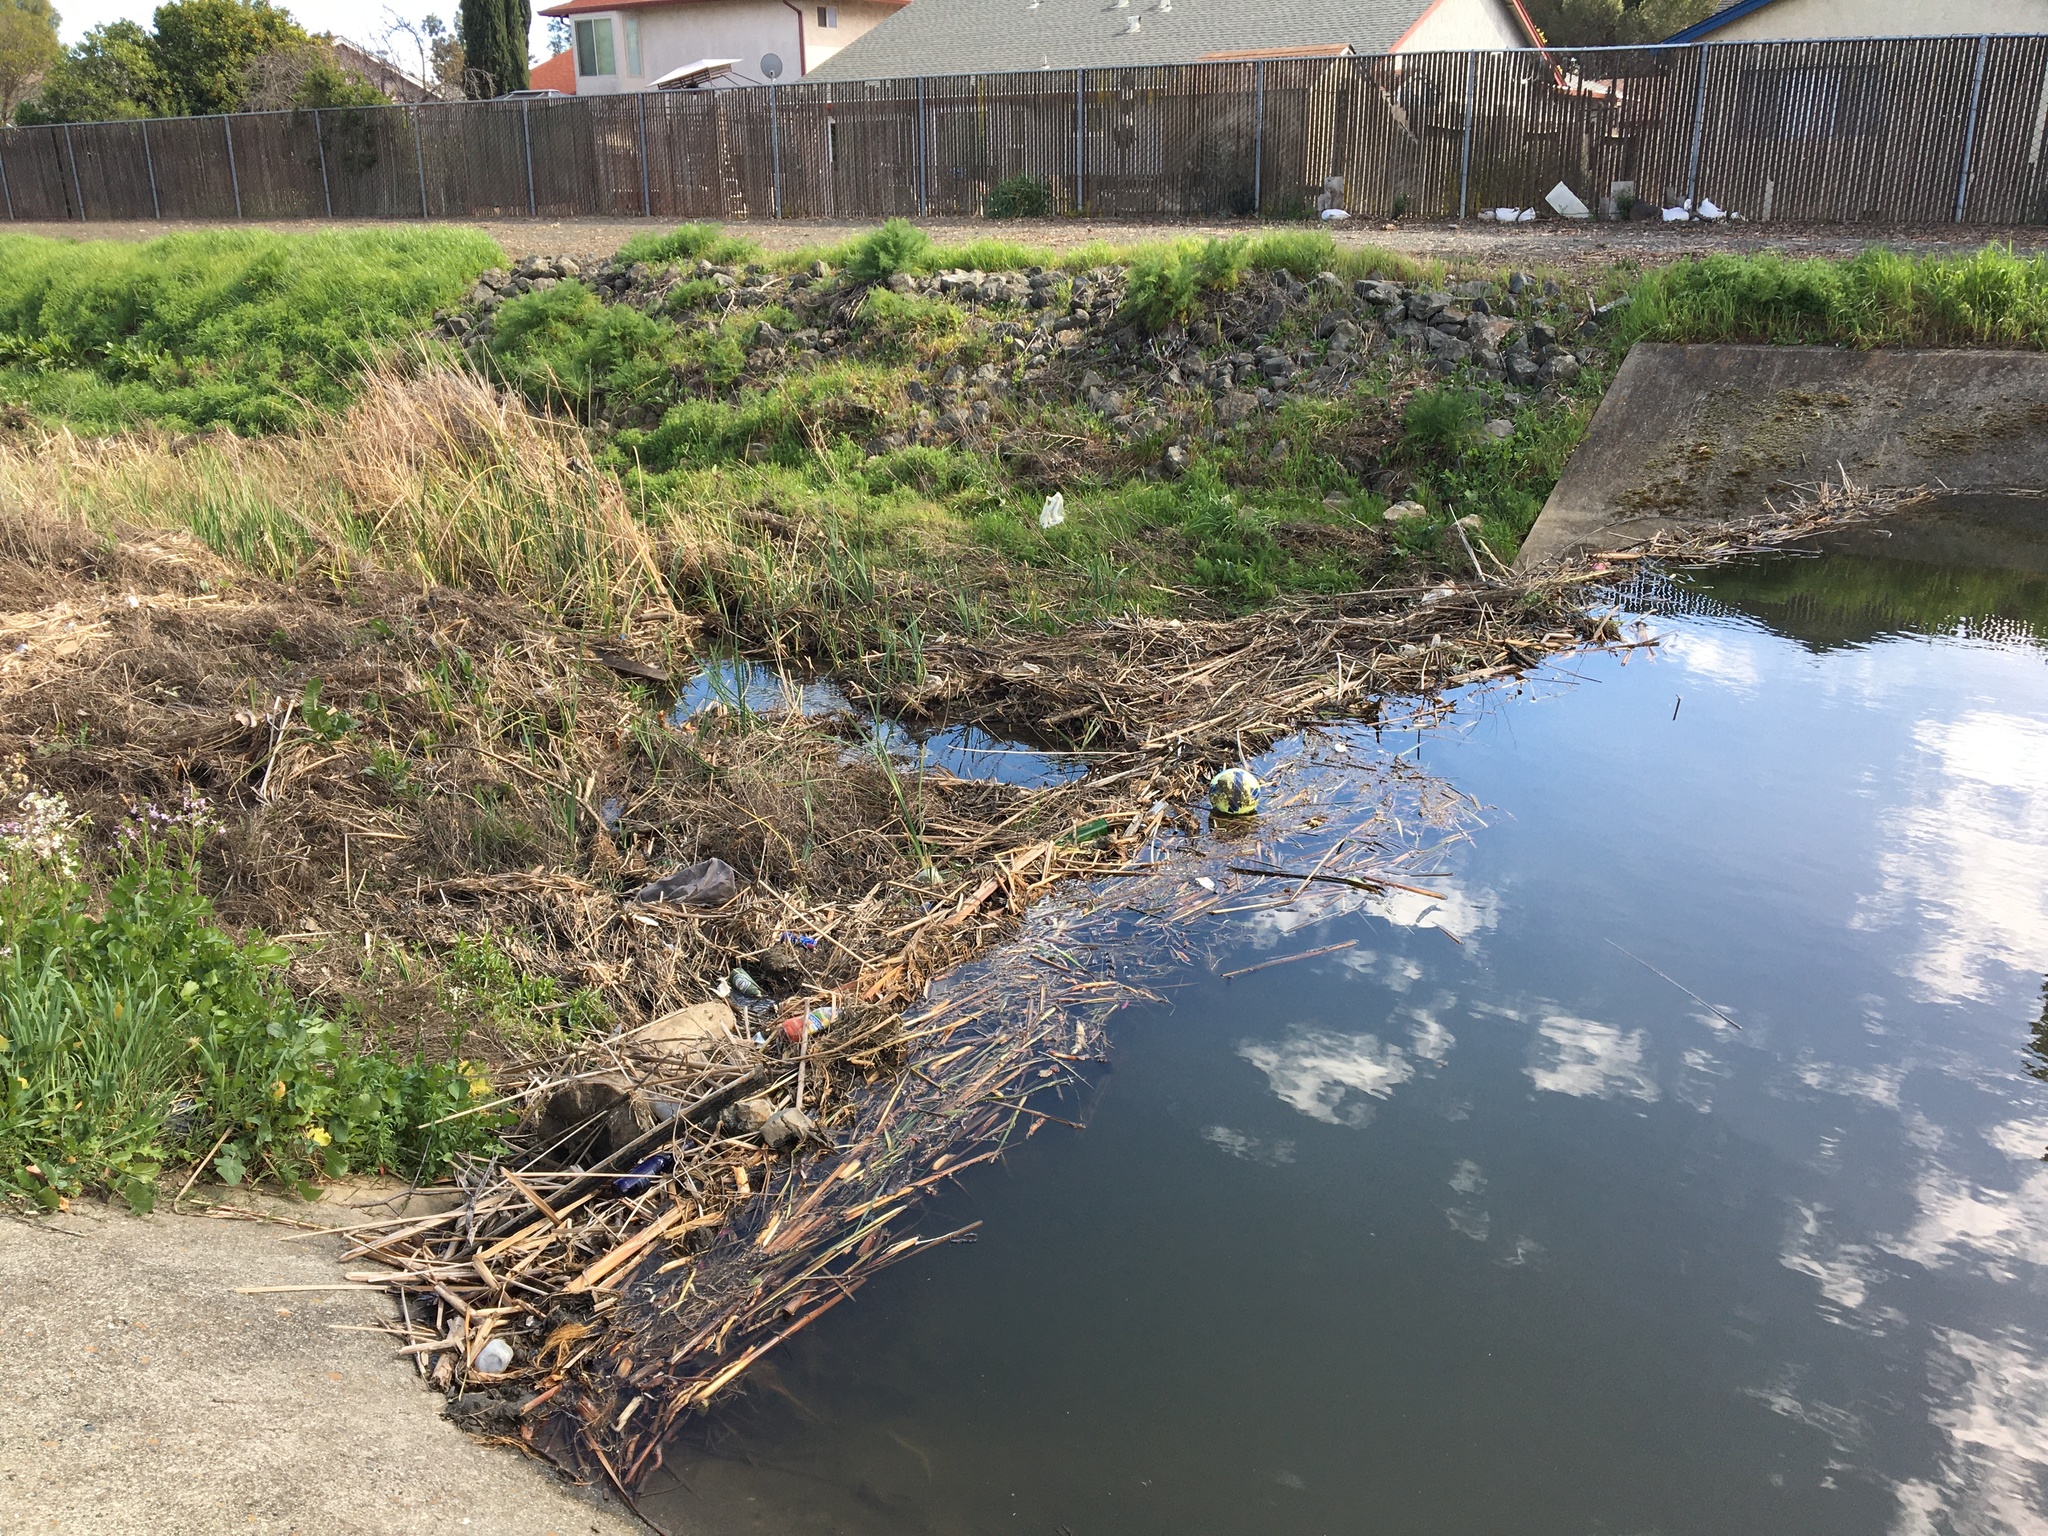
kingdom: Animalia
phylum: Chordata
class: Mammalia
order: Rodentia
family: Castoridae
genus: Castor
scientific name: Castor canadensis
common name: American beaver
